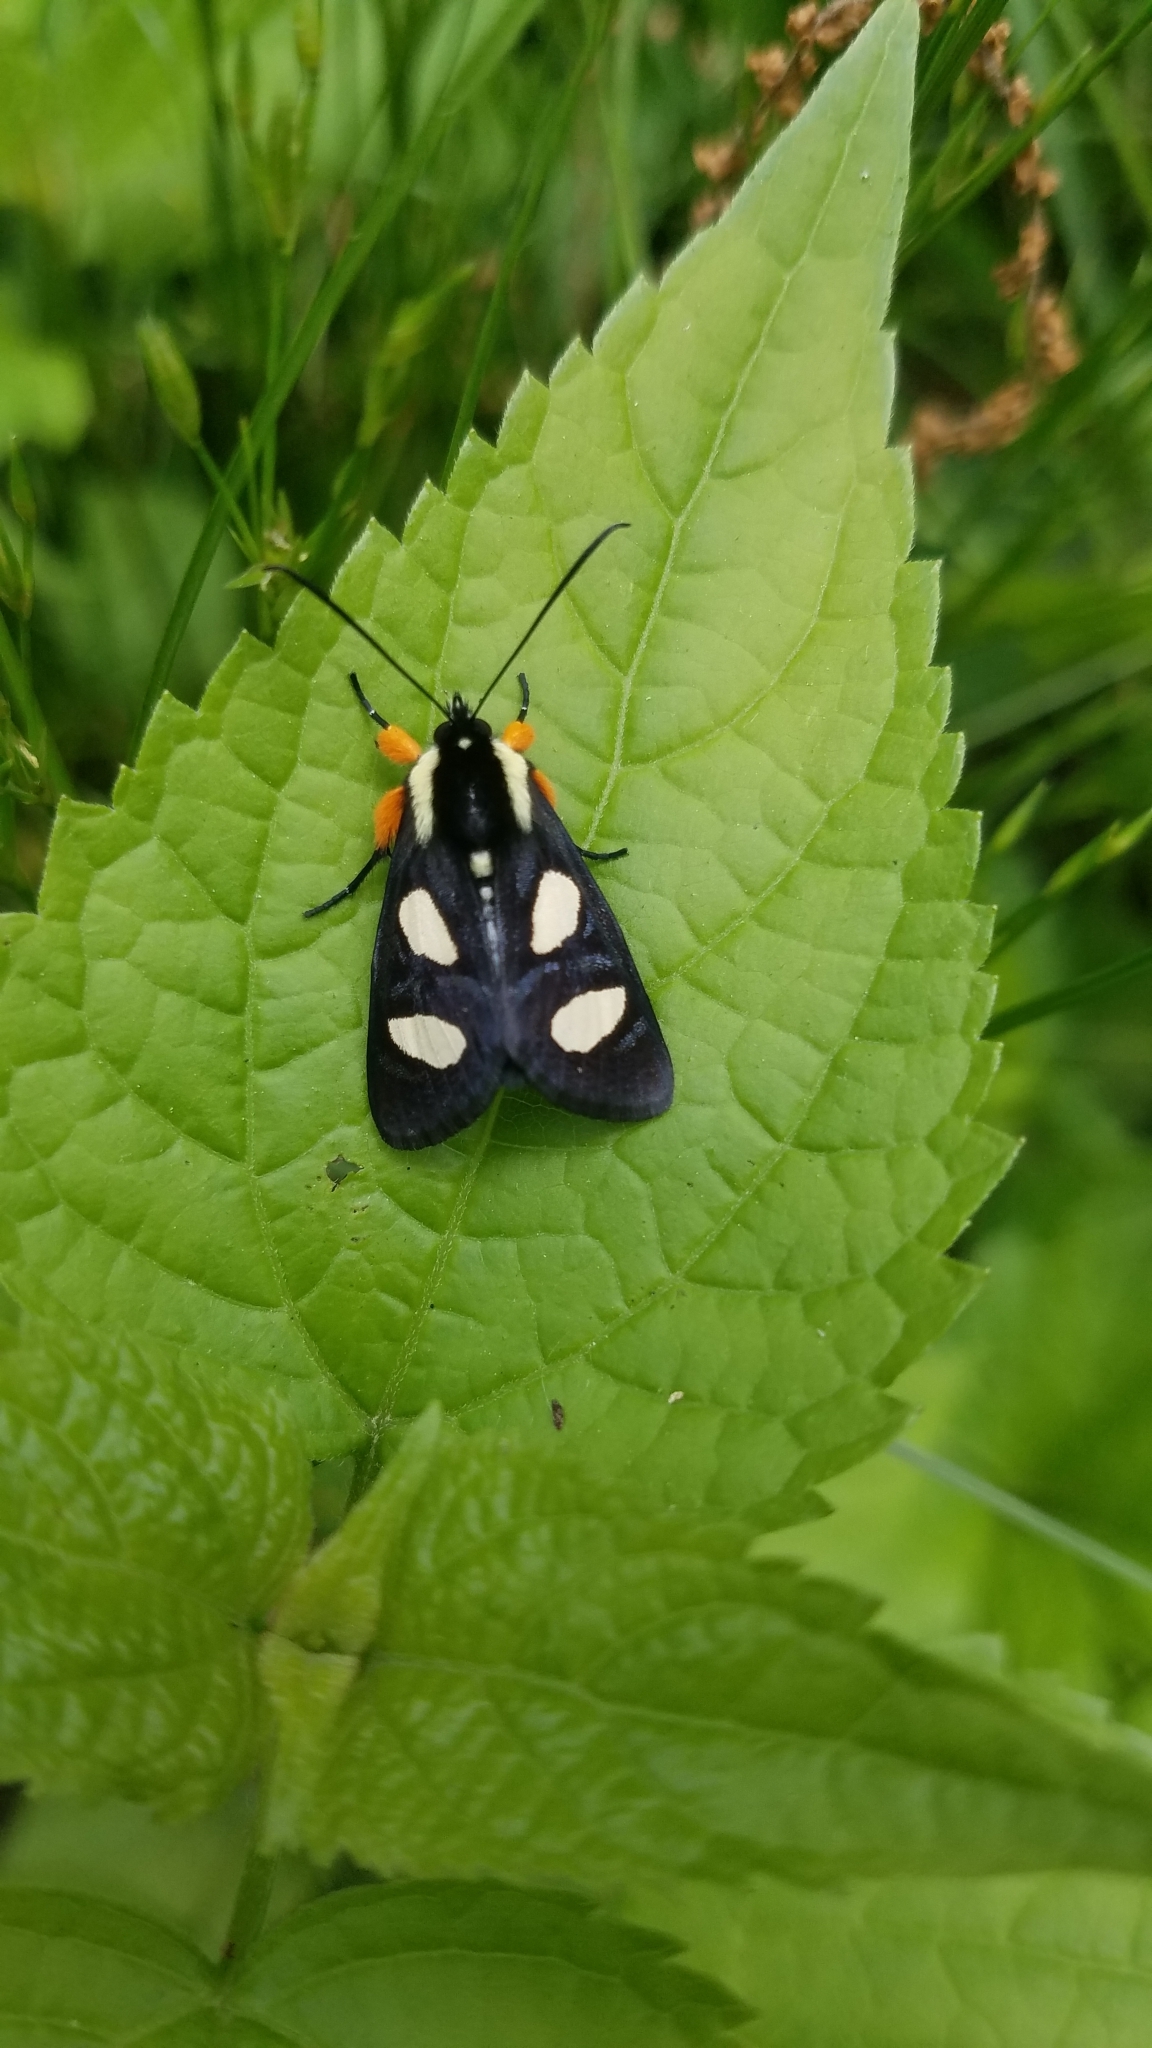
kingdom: Animalia
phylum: Arthropoda
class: Insecta
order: Lepidoptera
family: Noctuidae
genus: Alypia
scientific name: Alypia octomaculata
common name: Eight-spotted forester
